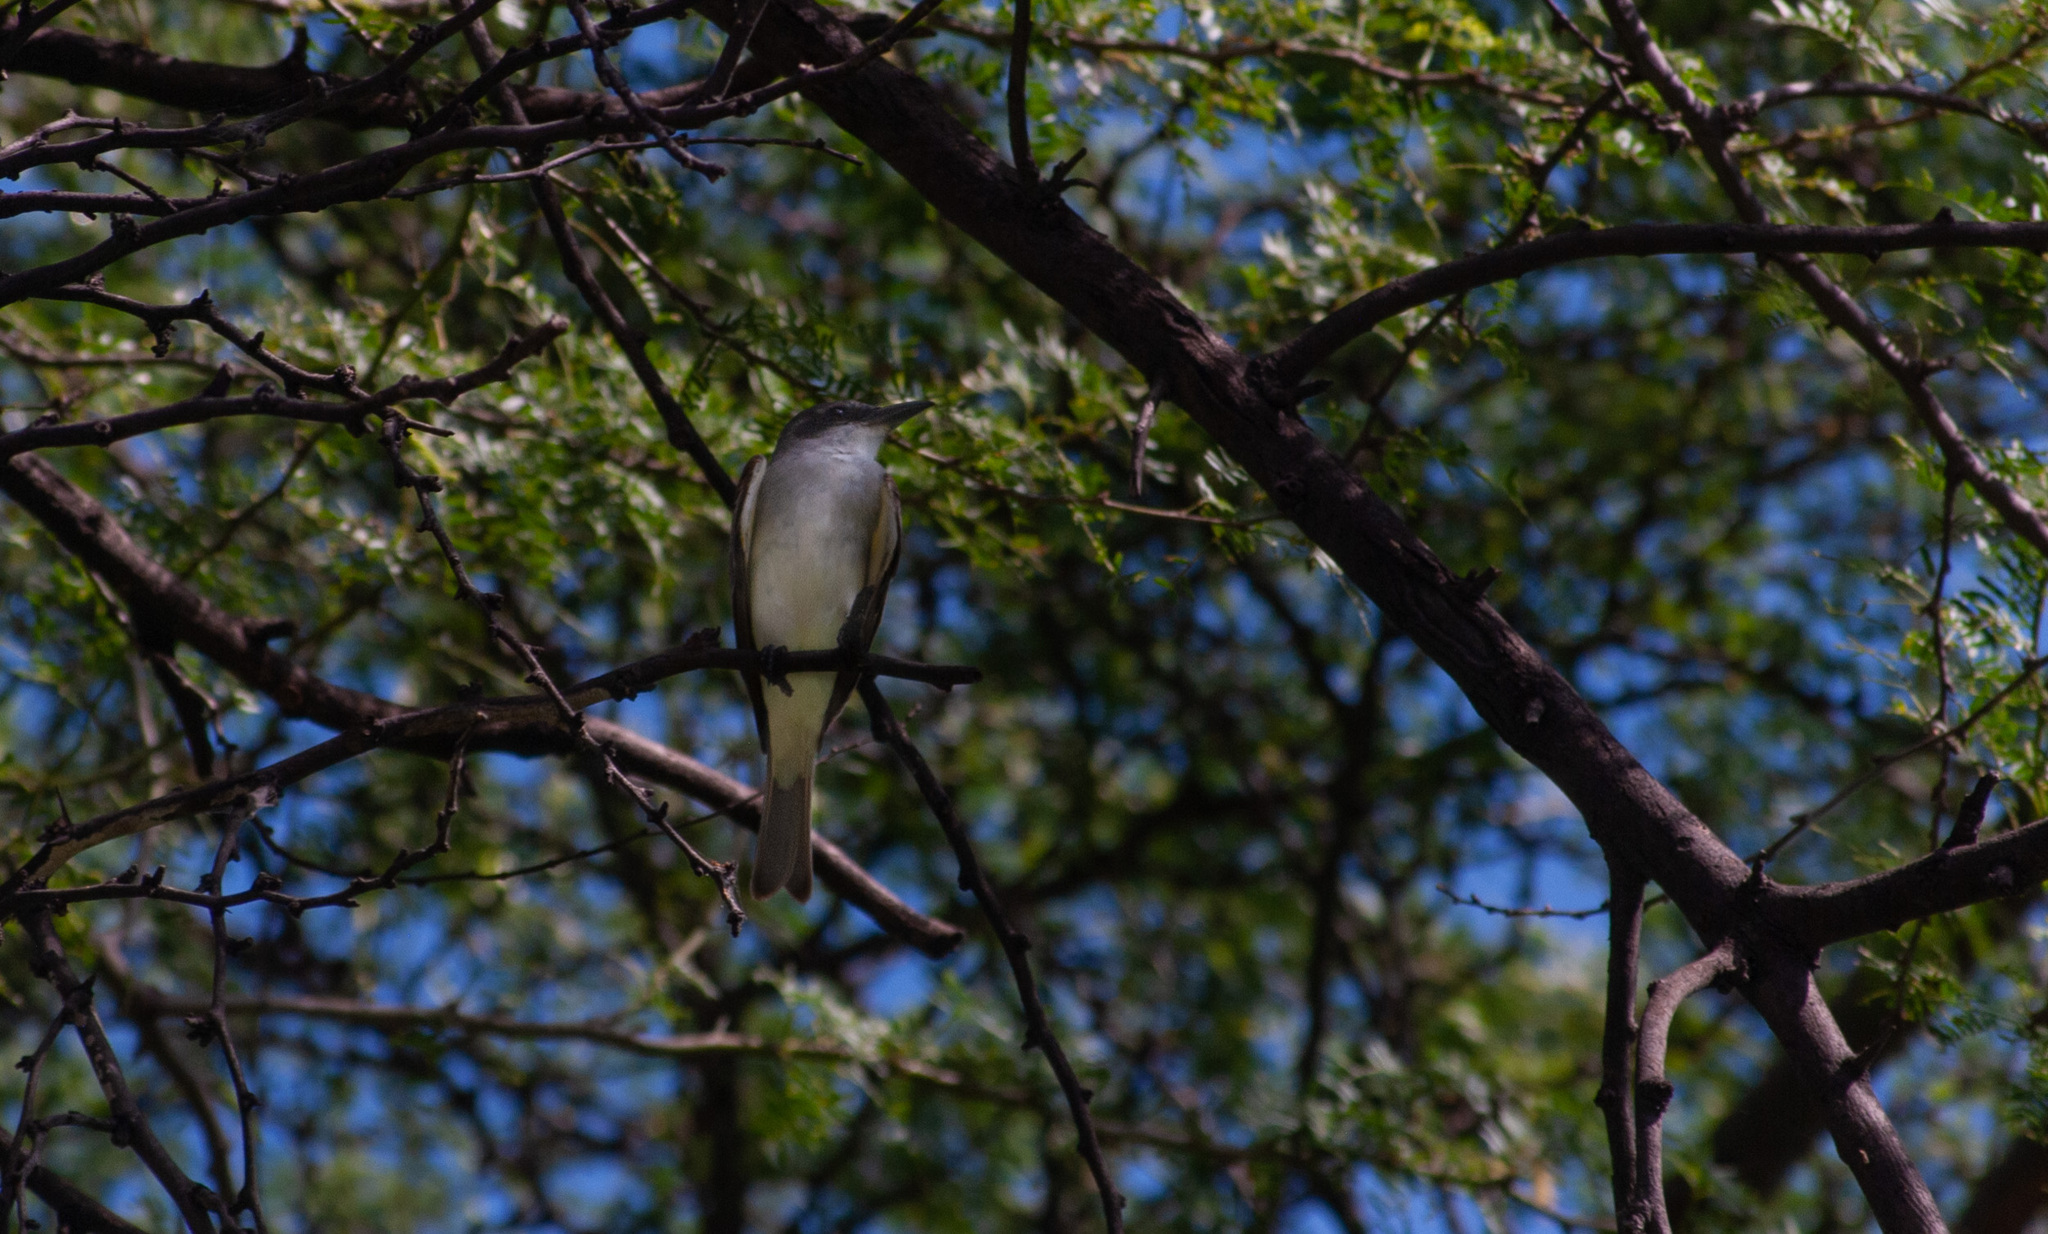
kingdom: Animalia
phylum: Chordata
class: Aves
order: Passeriformes
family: Tyrannidae
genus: Tyrannus
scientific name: Tyrannus dominicensis
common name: Gray kingbird
